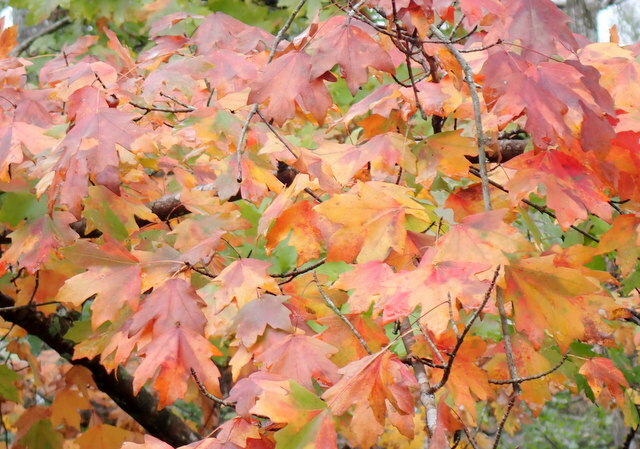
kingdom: Plantae
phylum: Tracheophyta
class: Magnoliopsida
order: Sapindales
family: Sapindaceae
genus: Acer
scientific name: Acer floridanum
